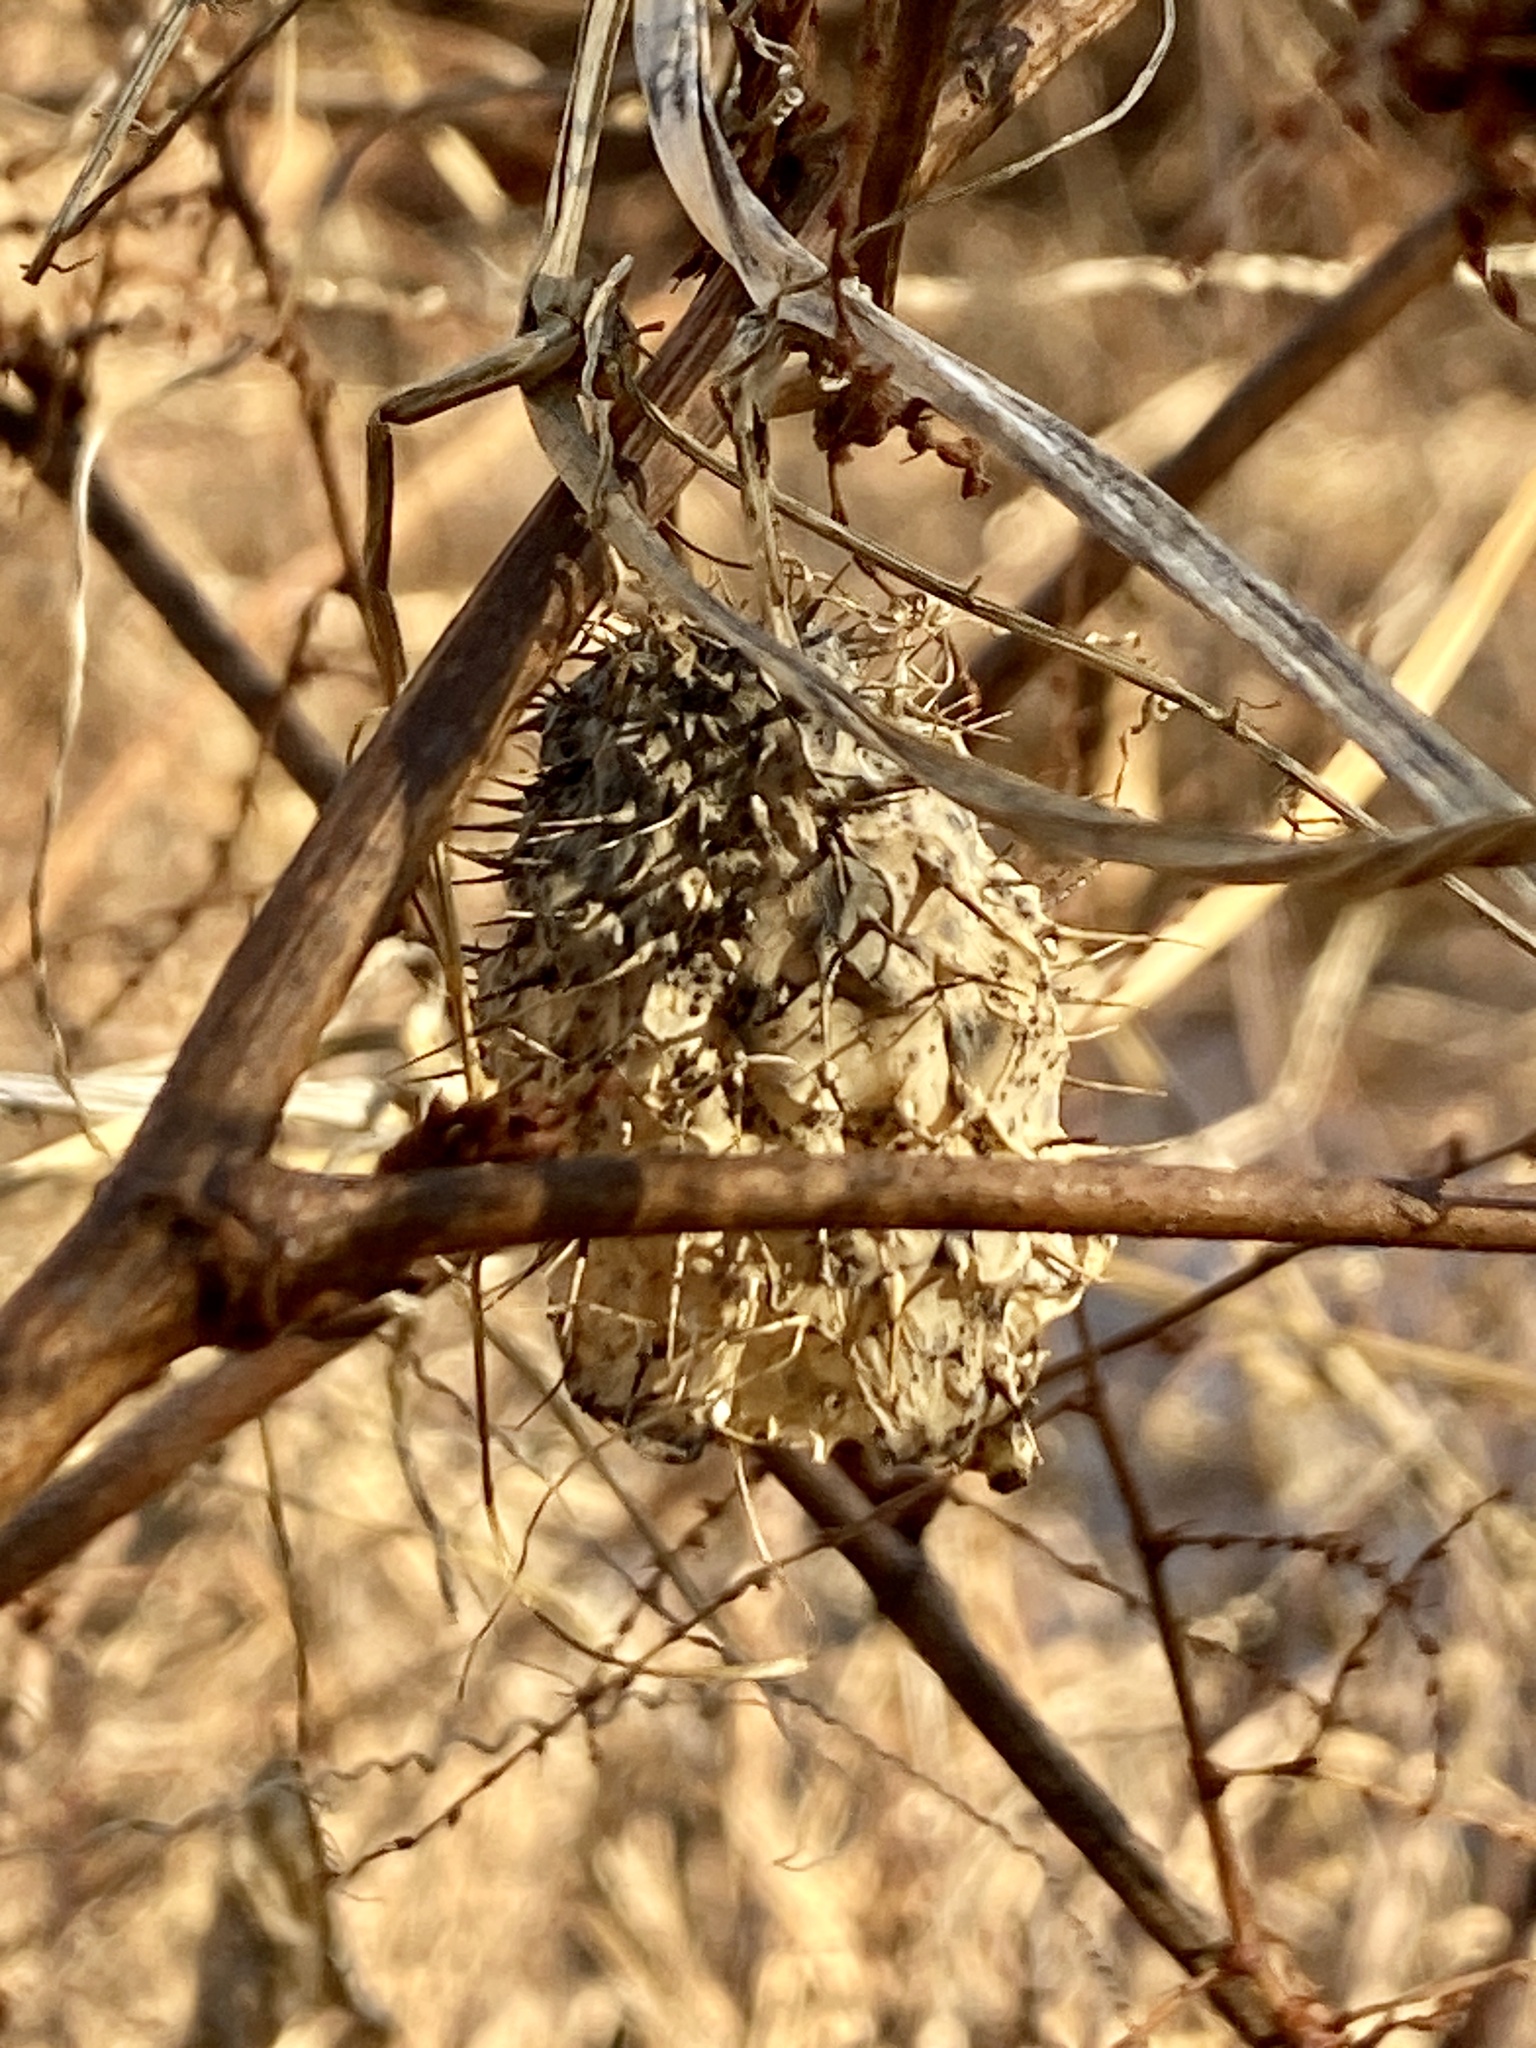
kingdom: Plantae
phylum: Tracheophyta
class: Magnoliopsida
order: Cucurbitales
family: Cucurbitaceae
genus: Echinocystis
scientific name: Echinocystis lobata
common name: Wild cucumber
